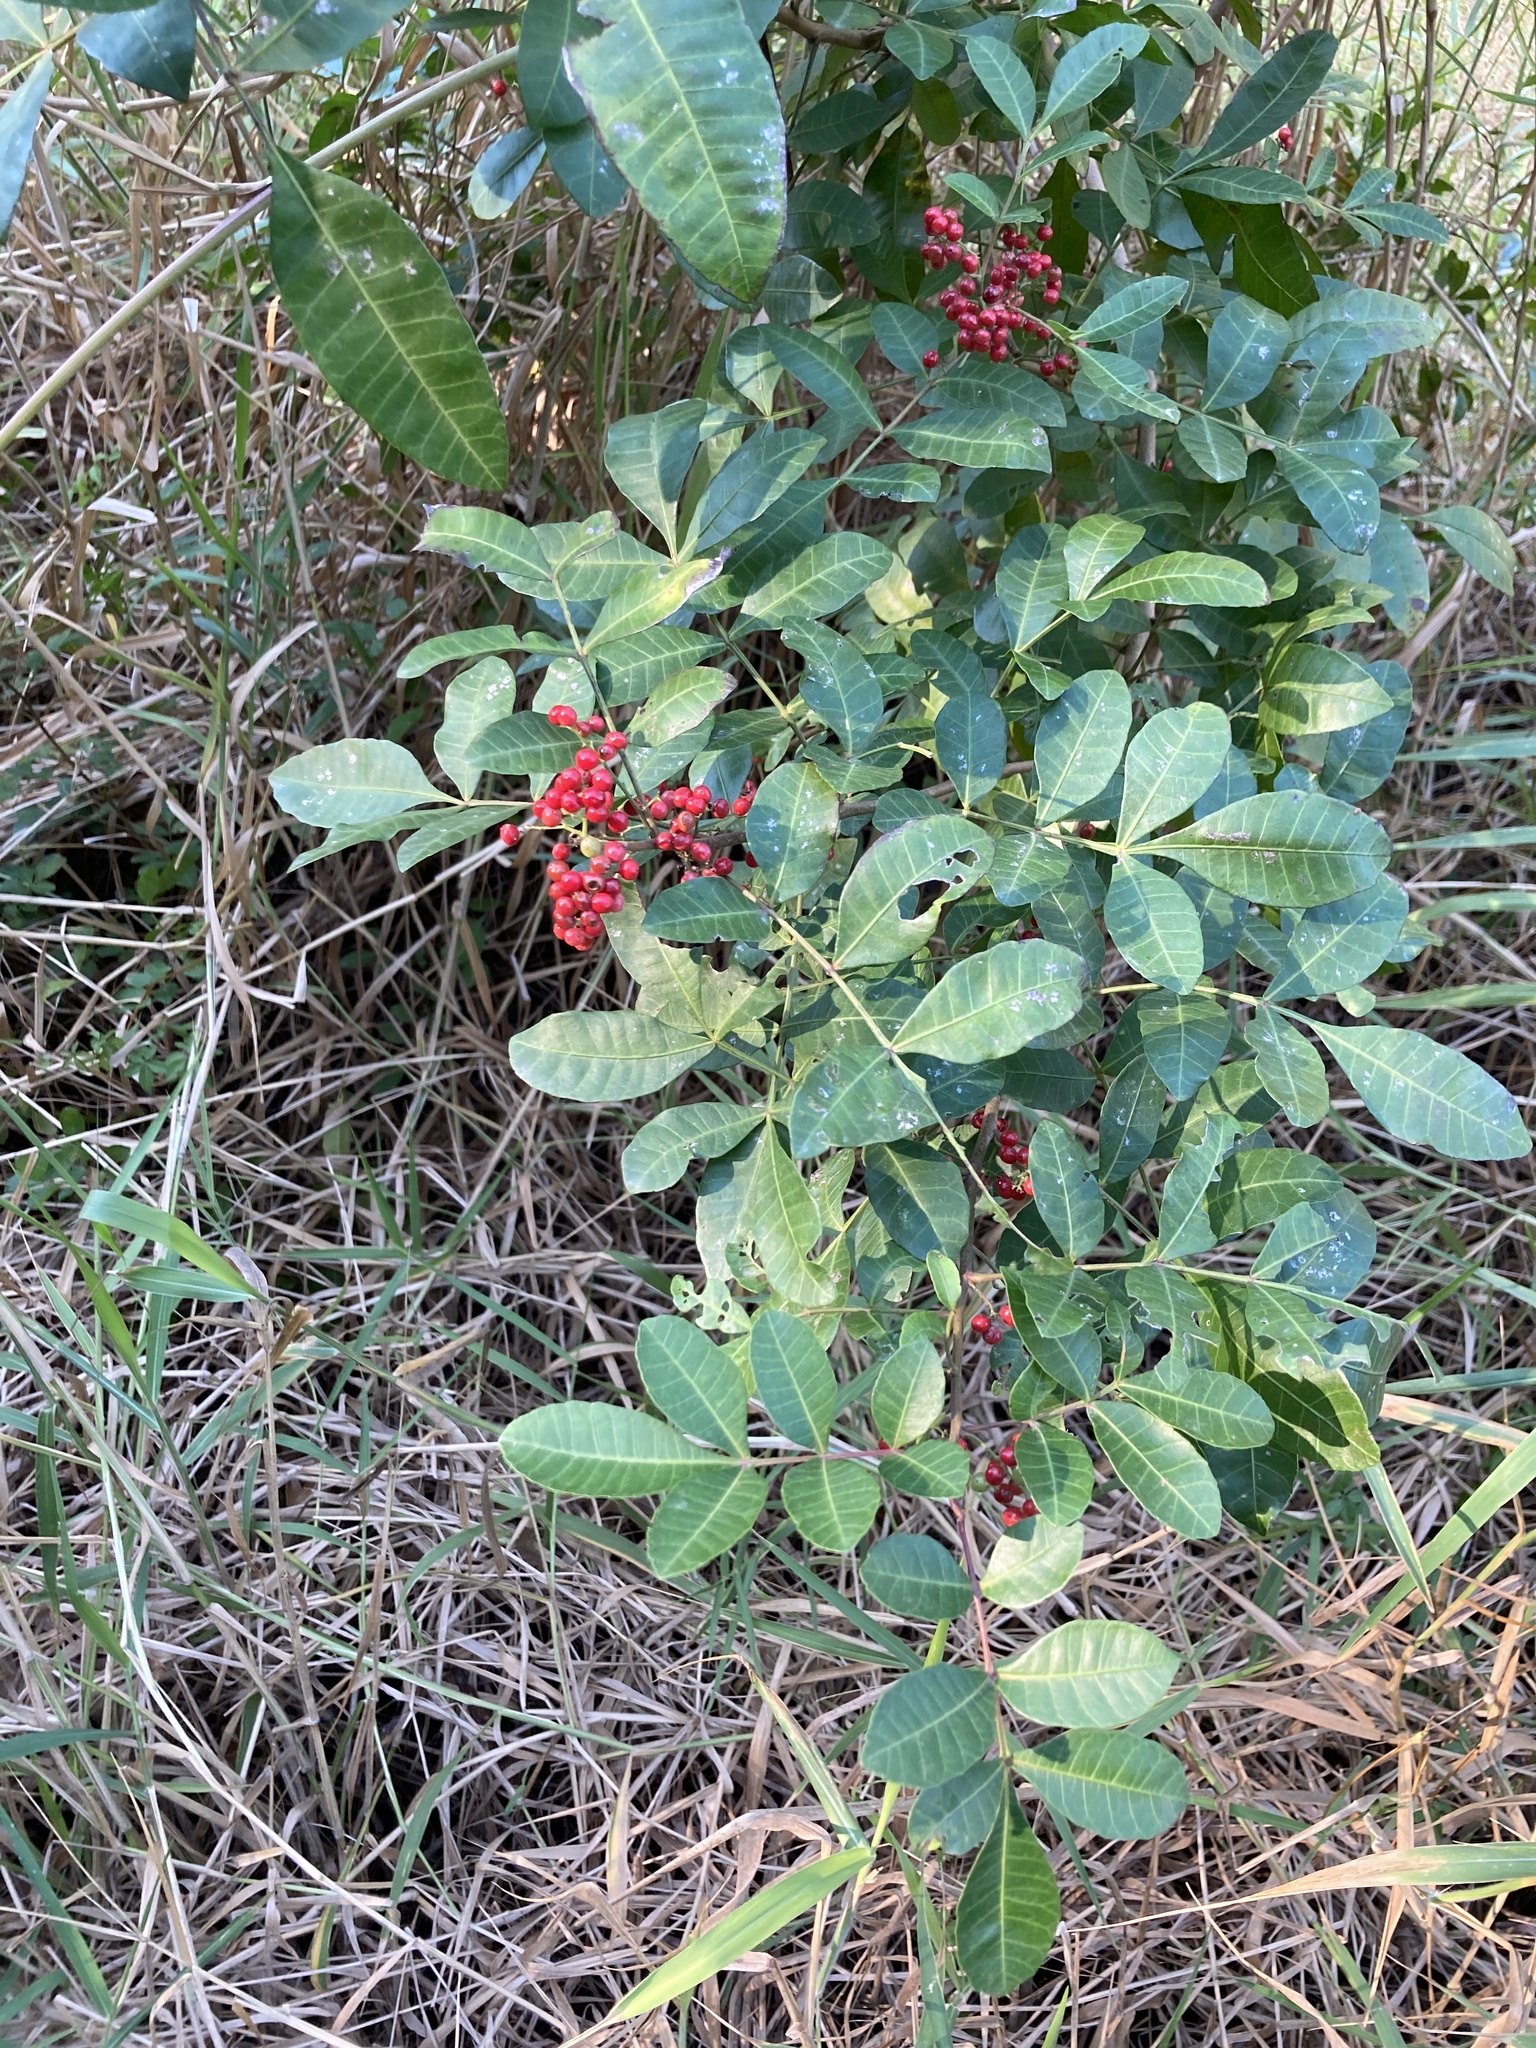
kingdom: Plantae
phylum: Tracheophyta
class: Magnoliopsida
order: Sapindales
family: Anacardiaceae
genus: Schinus
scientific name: Schinus terebinthifolia
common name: Brazilian peppertree
